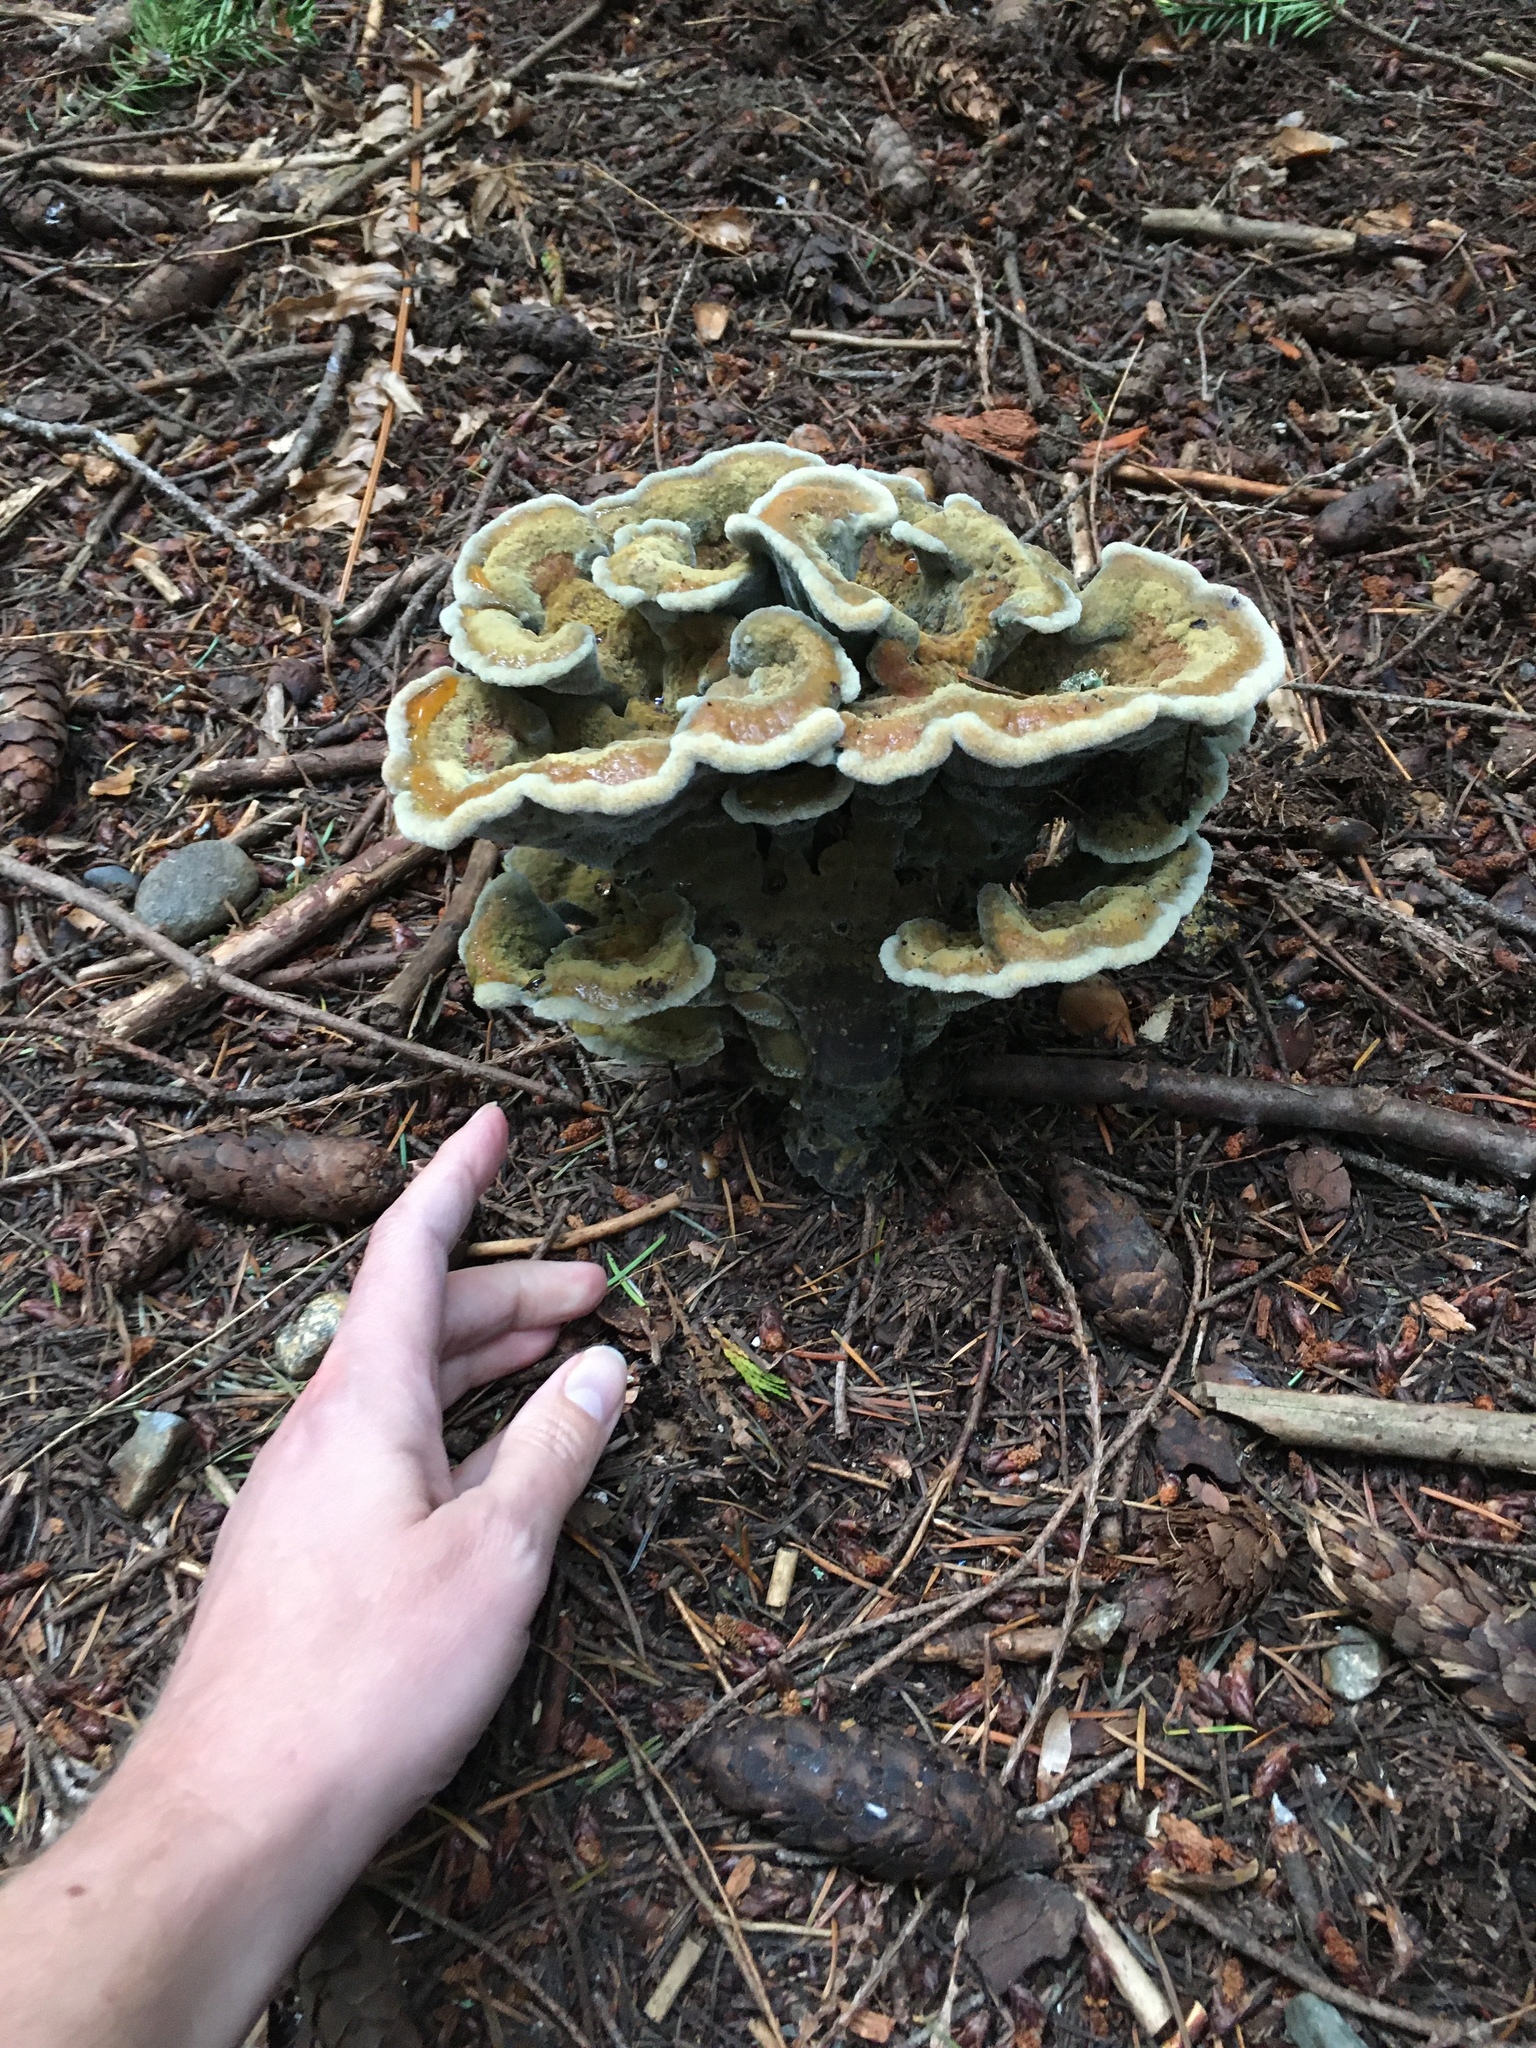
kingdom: Fungi
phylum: Basidiomycota
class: Agaricomycetes
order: Polyporales
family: Laetiporaceae
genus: Phaeolus
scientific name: Phaeolus schweinitzii
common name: Dyer's mazegill
